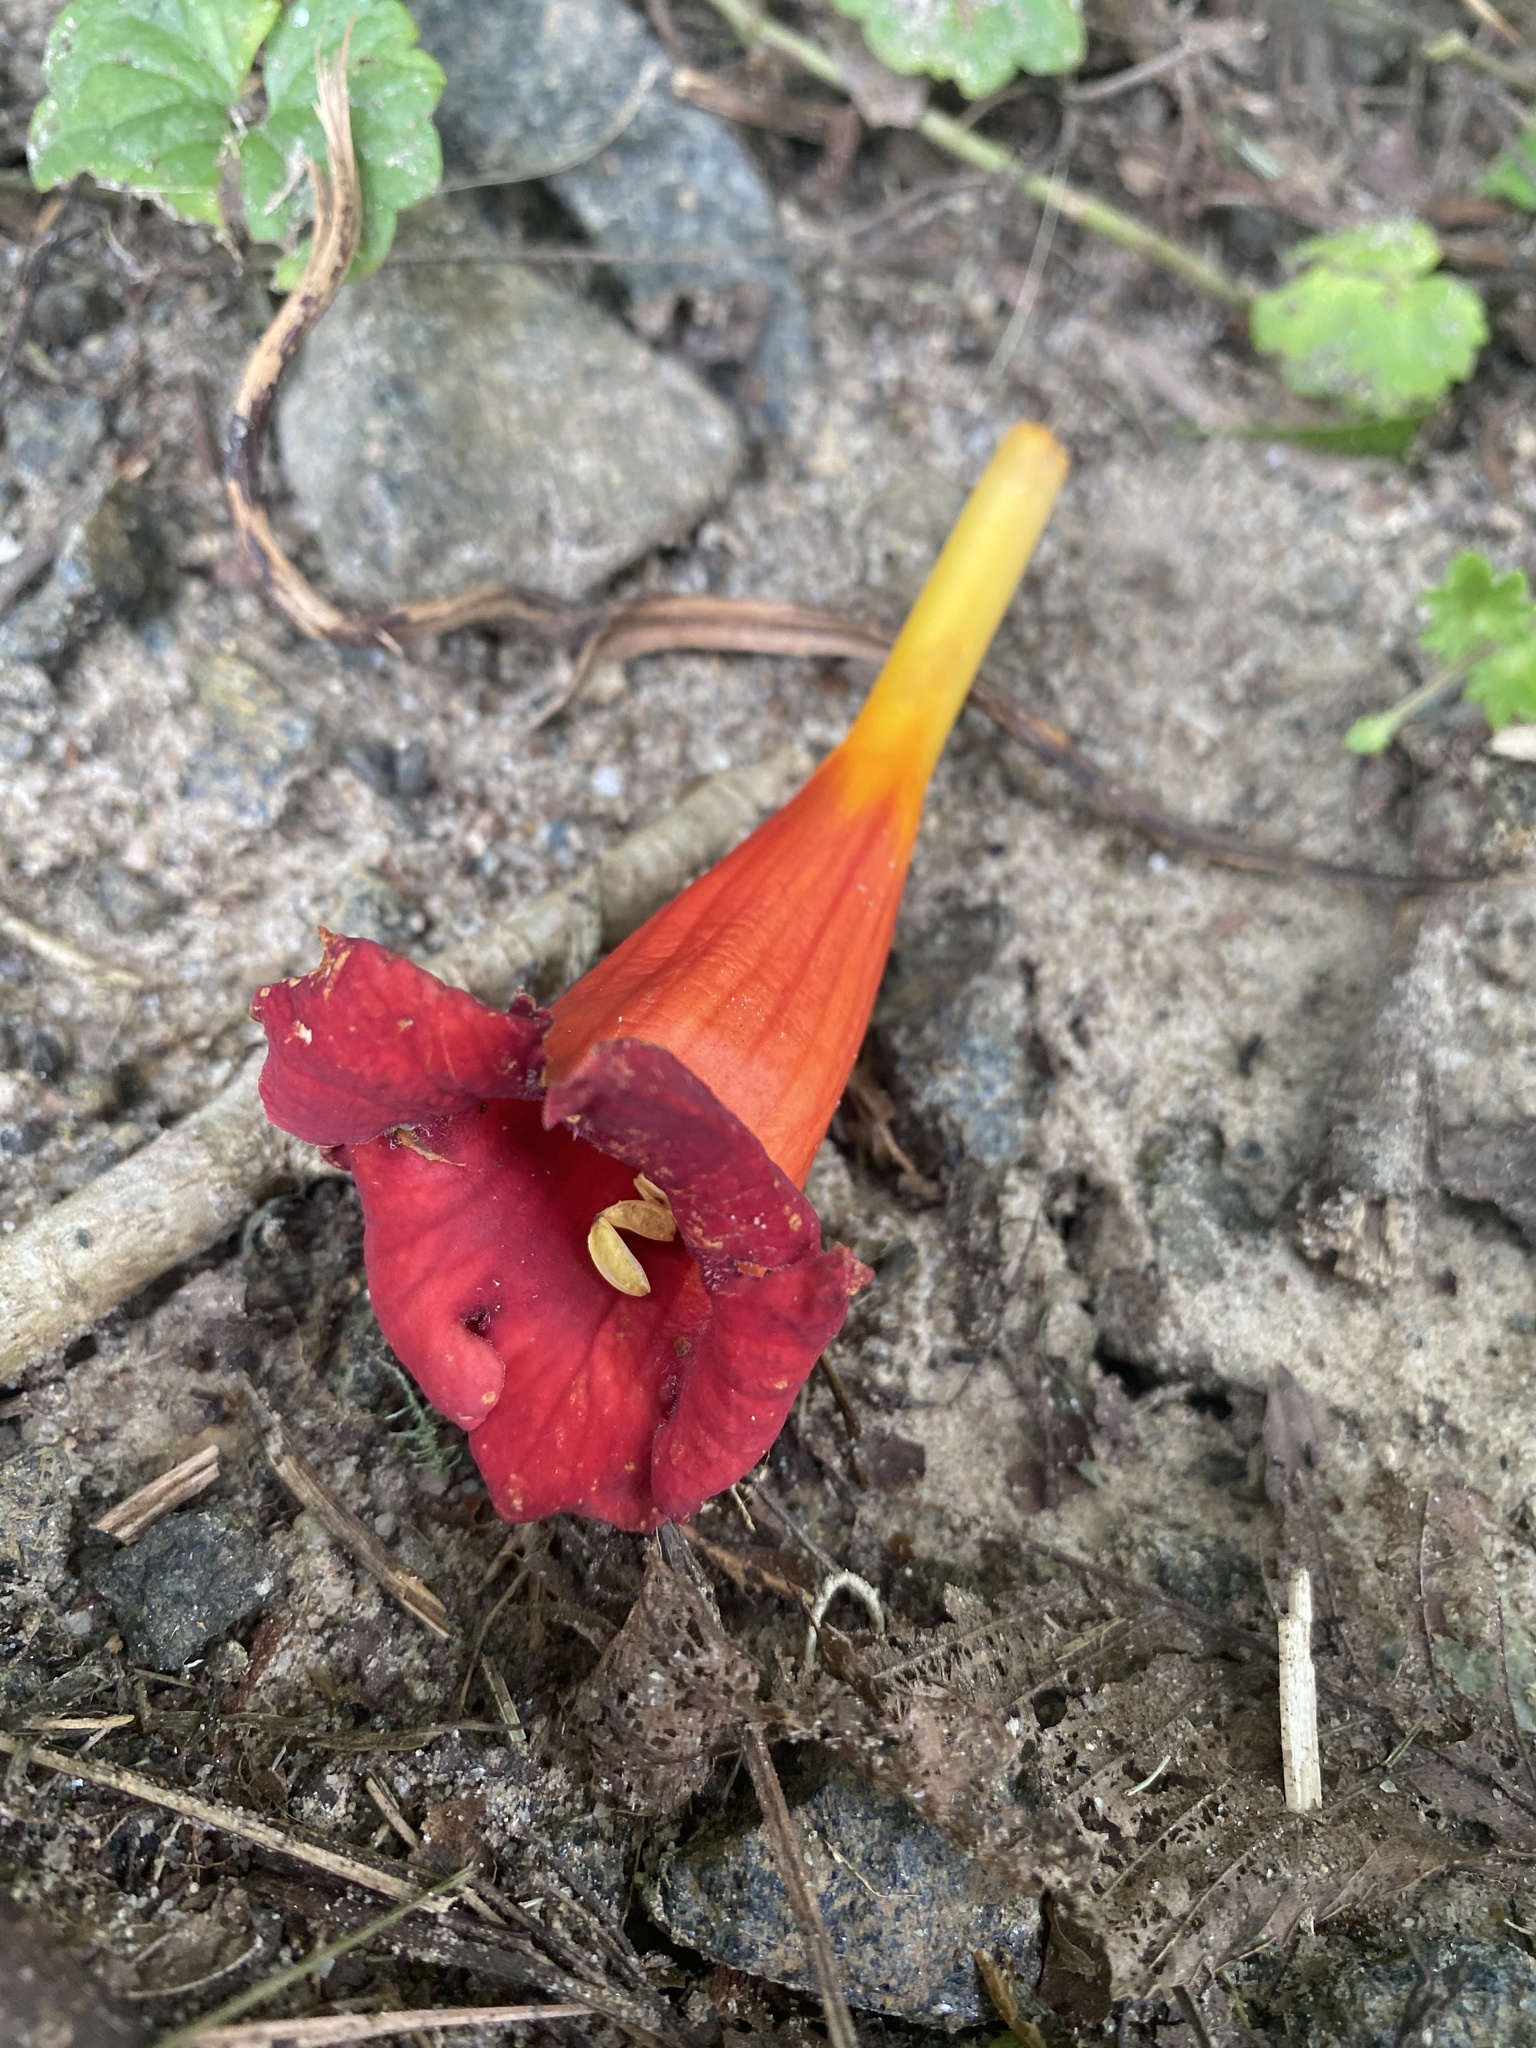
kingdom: Plantae
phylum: Tracheophyta
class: Magnoliopsida
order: Lamiales
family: Bignoniaceae
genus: Campsis
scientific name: Campsis radicans
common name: Trumpet-creeper
